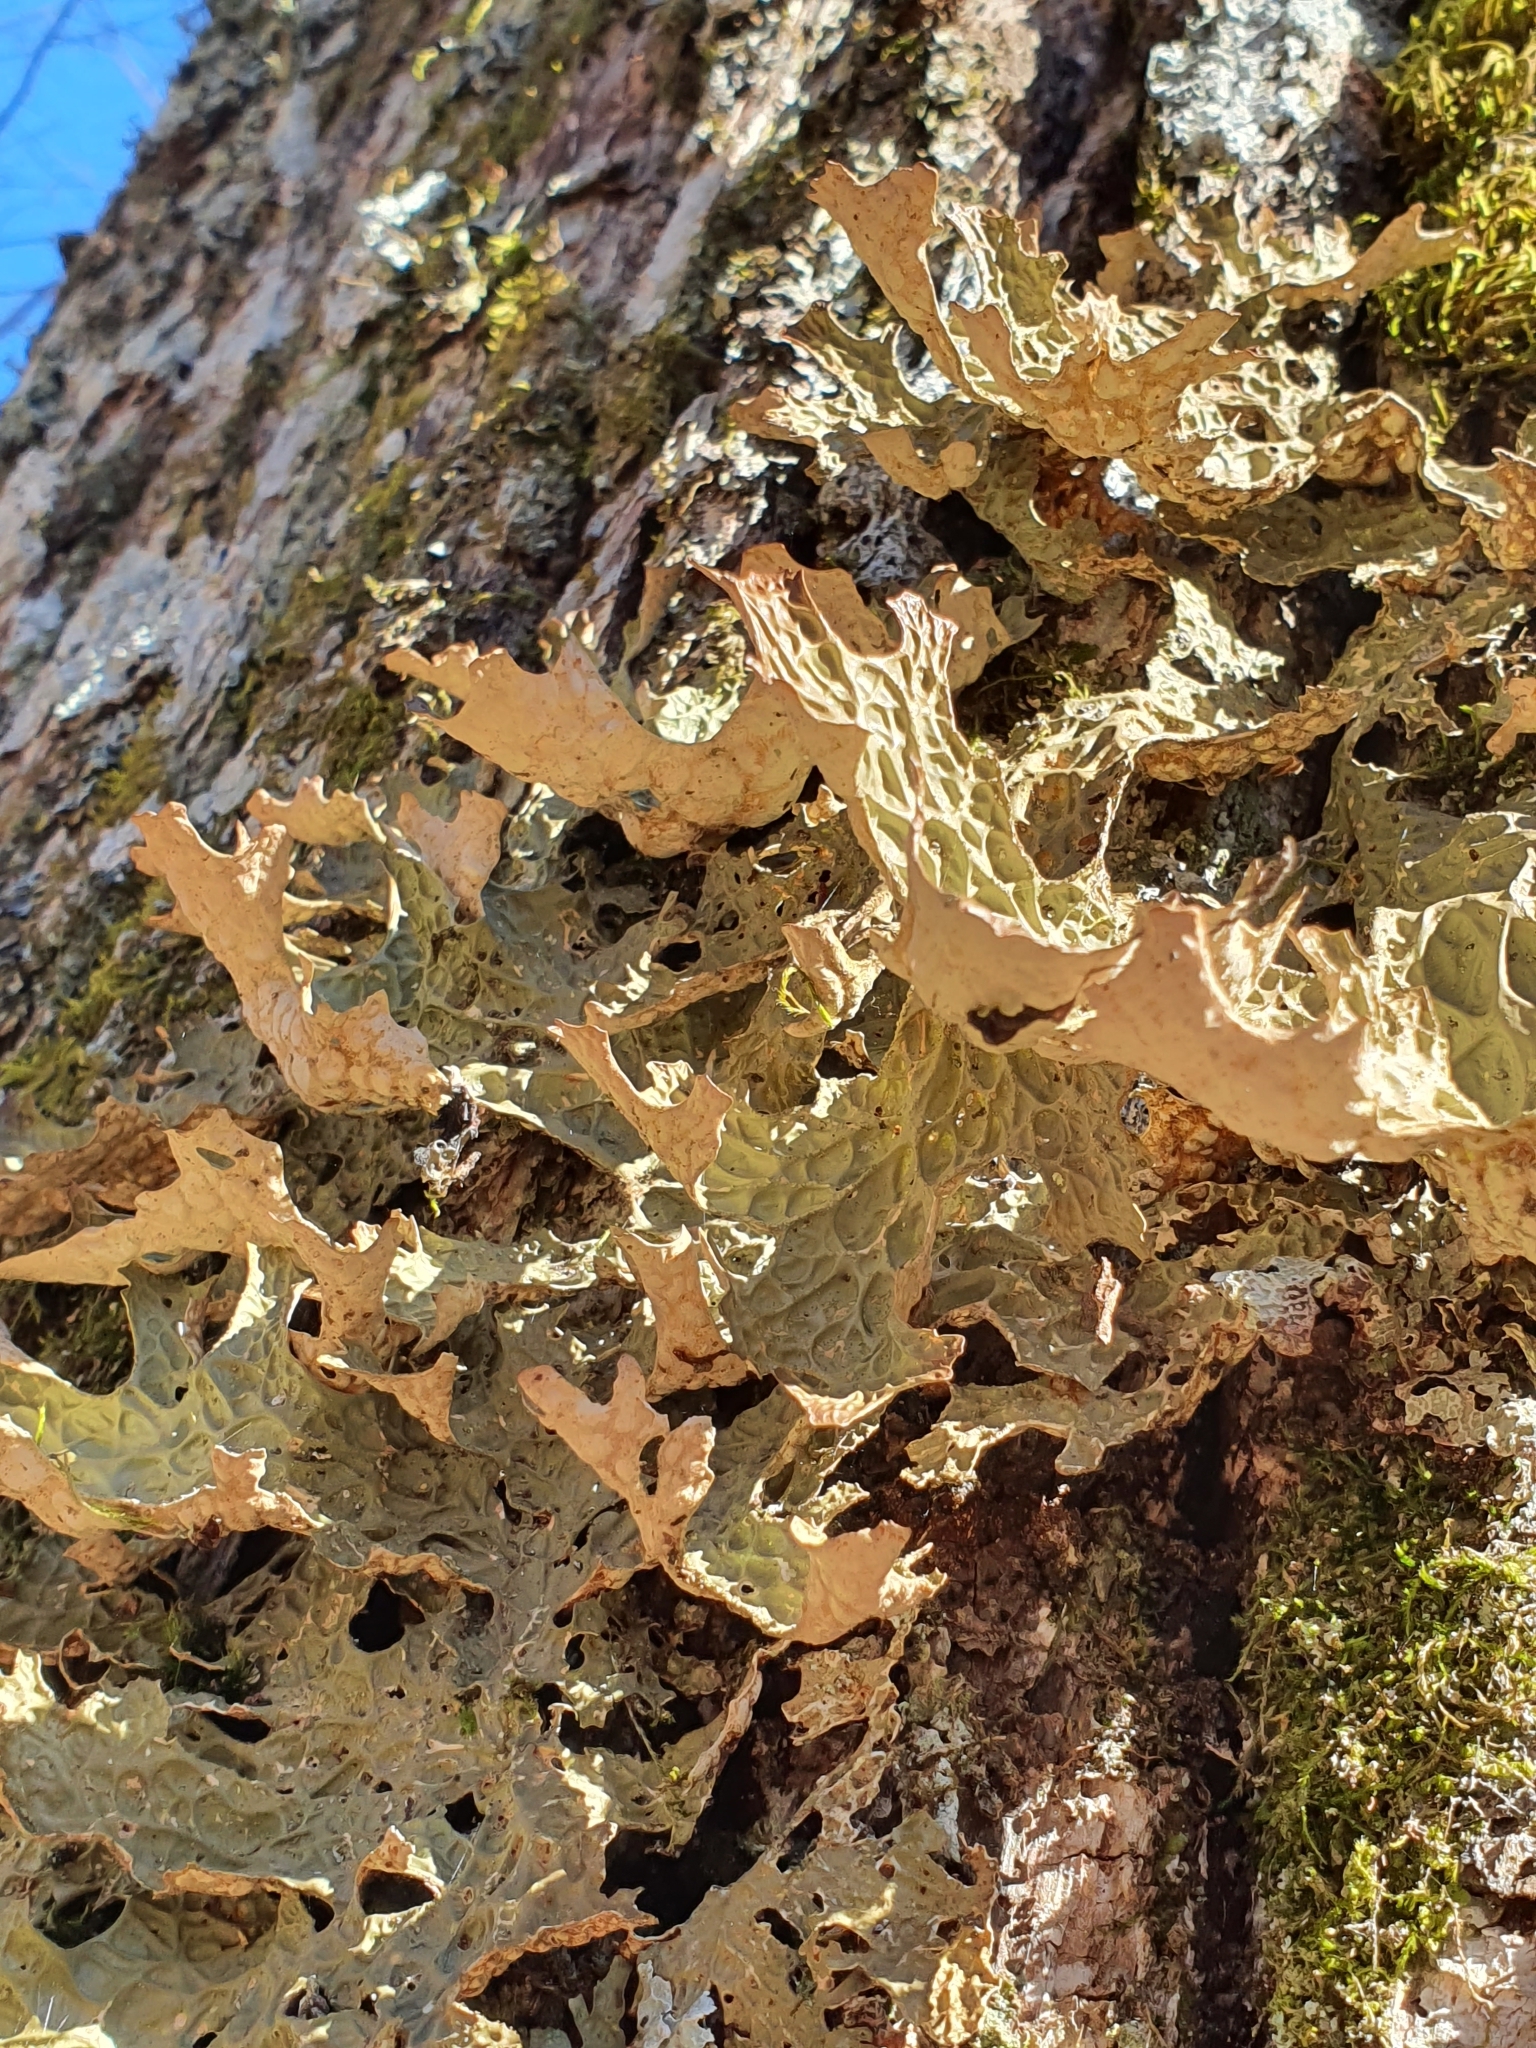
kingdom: Fungi
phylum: Ascomycota
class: Lecanoromycetes
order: Peltigerales
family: Lobariaceae
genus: Lobaria
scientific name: Lobaria pulmonaria
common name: Lungwort
